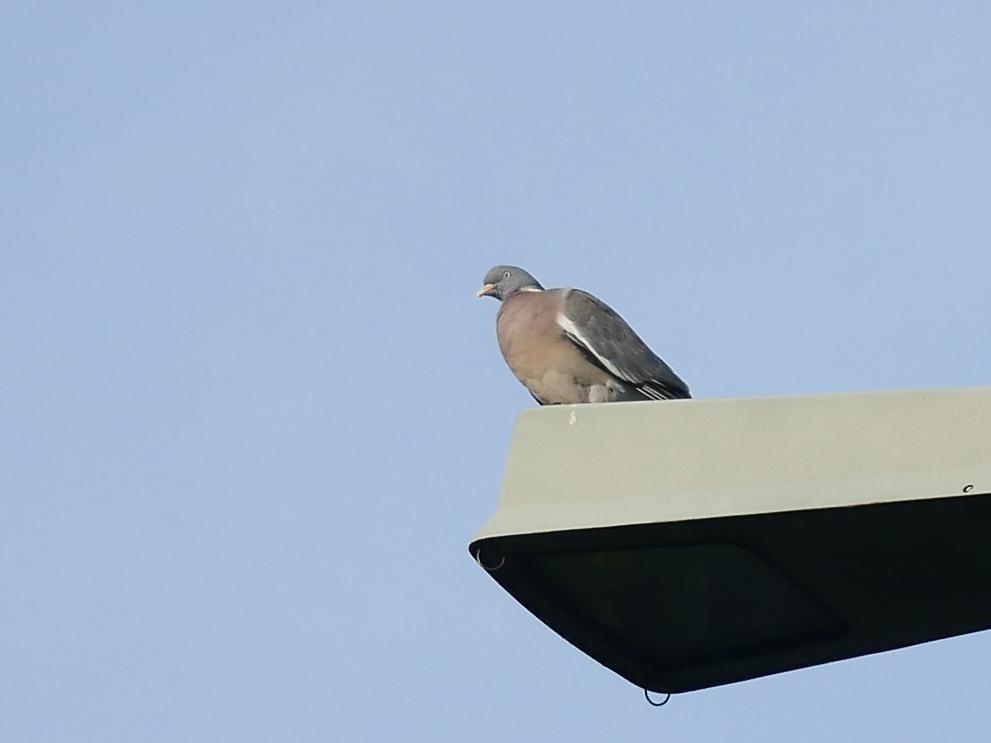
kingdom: Animalia
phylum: Chordata
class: Aves
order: Columbiformes
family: Columbidae
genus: Columba
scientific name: Columba palumbus
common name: Common wood pigeon
